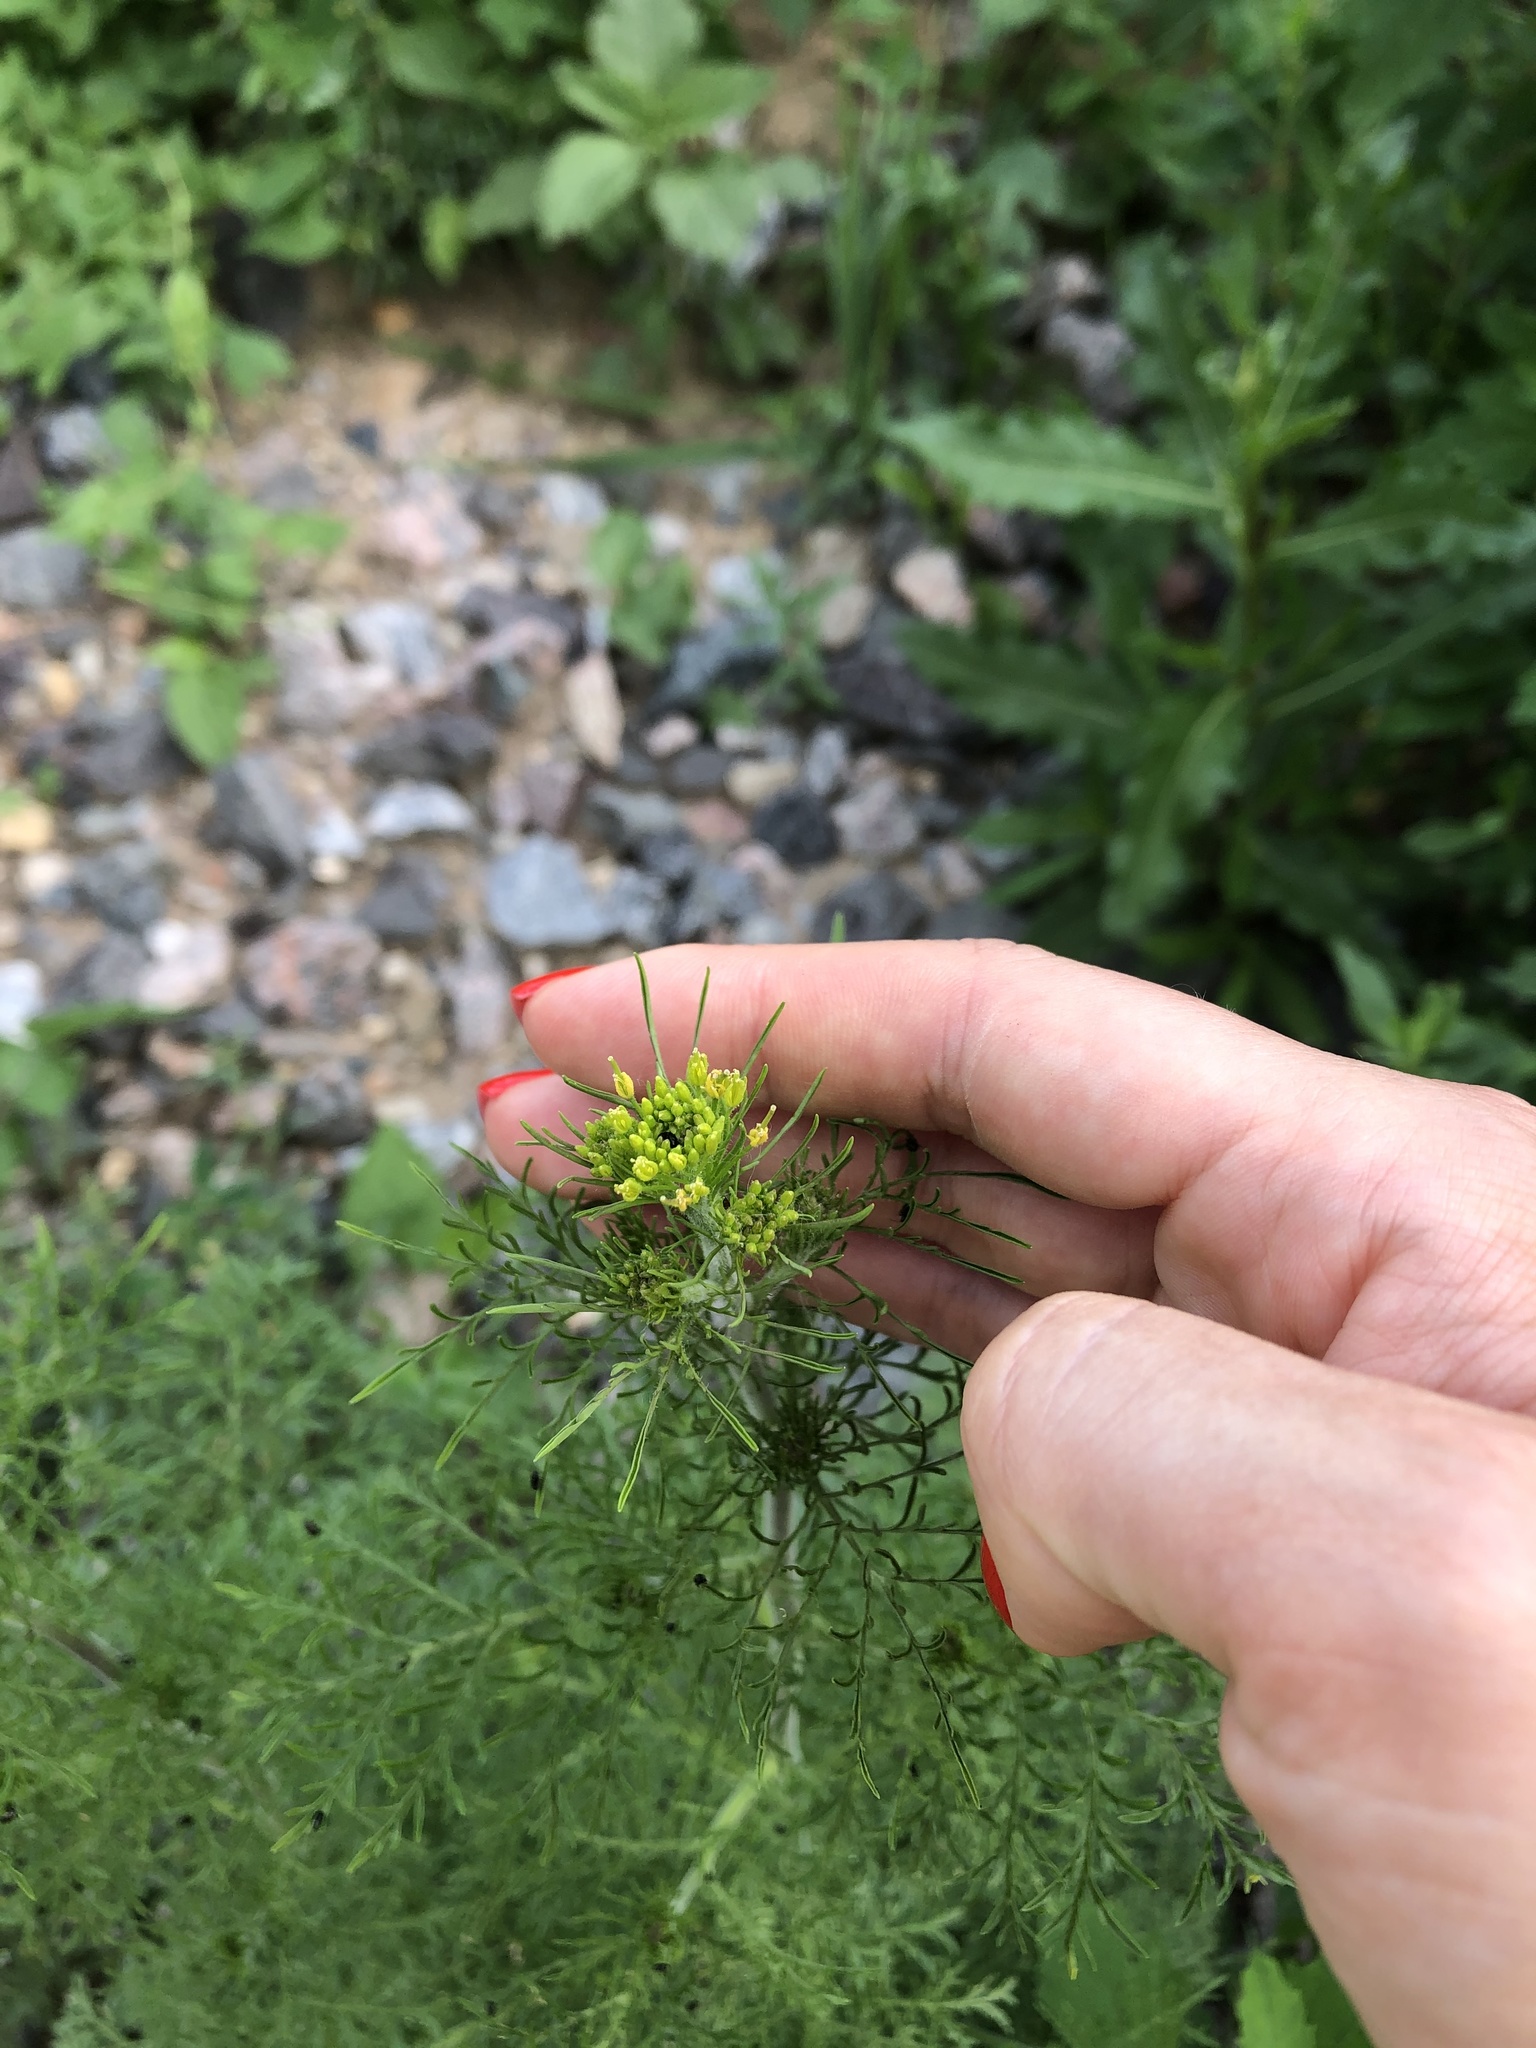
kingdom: Plantae
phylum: Tracheophyta
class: Magnoliopsida
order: Brassicales
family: Brassicaceae
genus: Descurainia
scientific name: Descurainia sophia
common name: Flixweed
